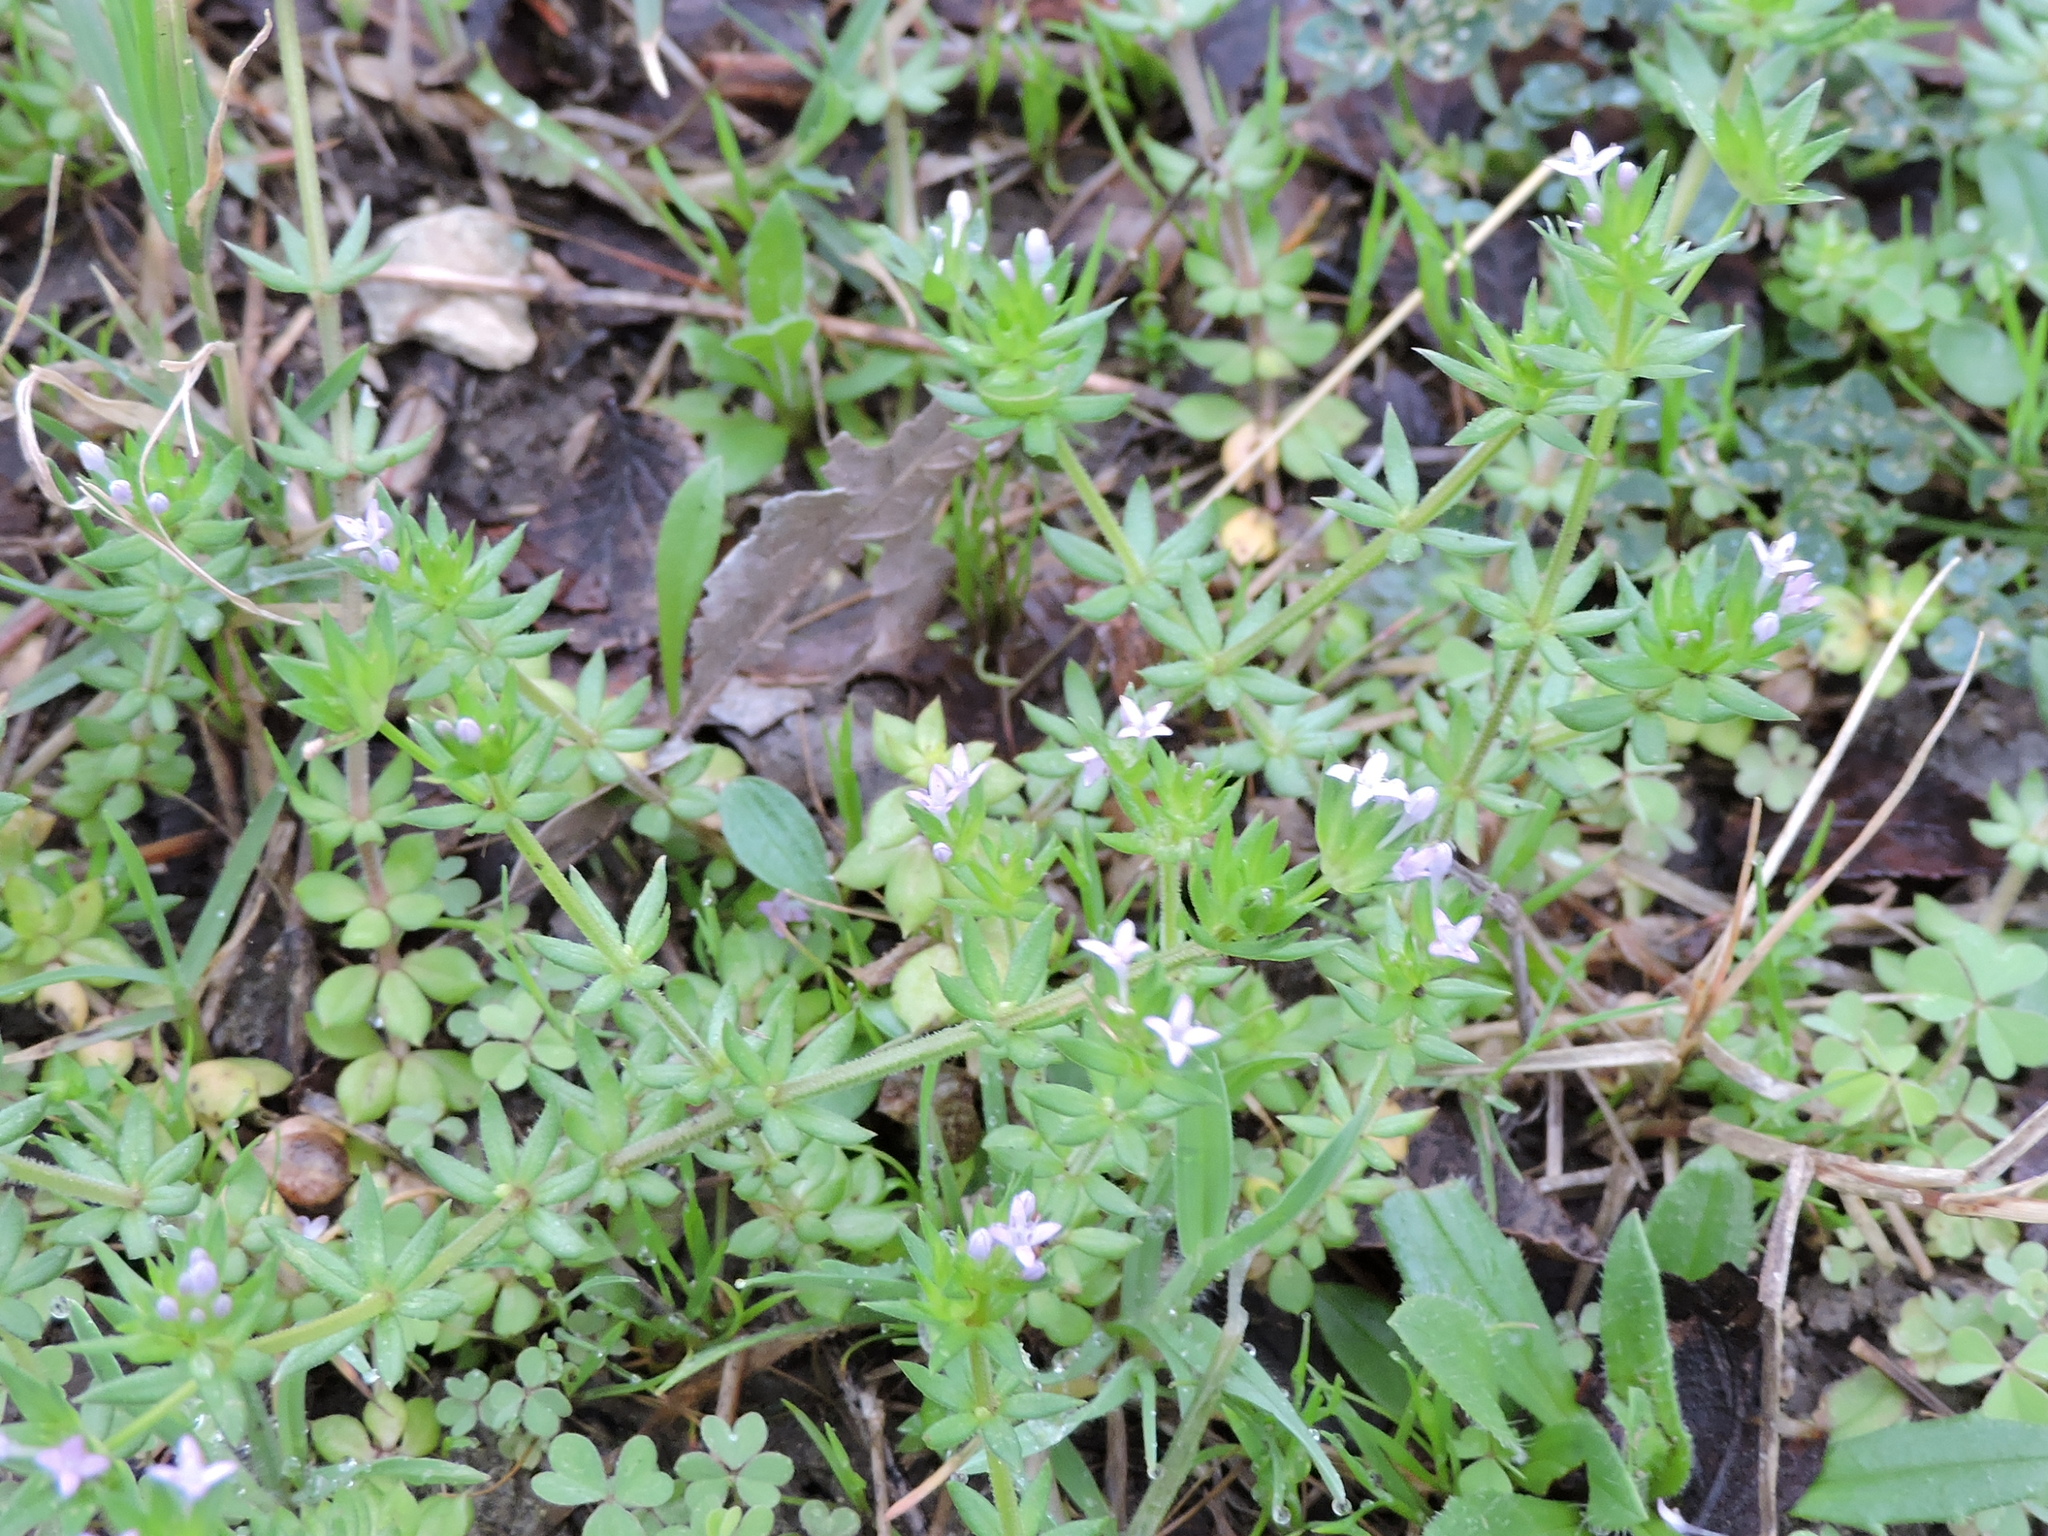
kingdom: Plantae
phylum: Tracheophyta
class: Magnoliopsida
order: Gentianales
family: Rubiaceae
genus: Sherardia
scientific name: Sherardia arvensis
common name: Field madder
